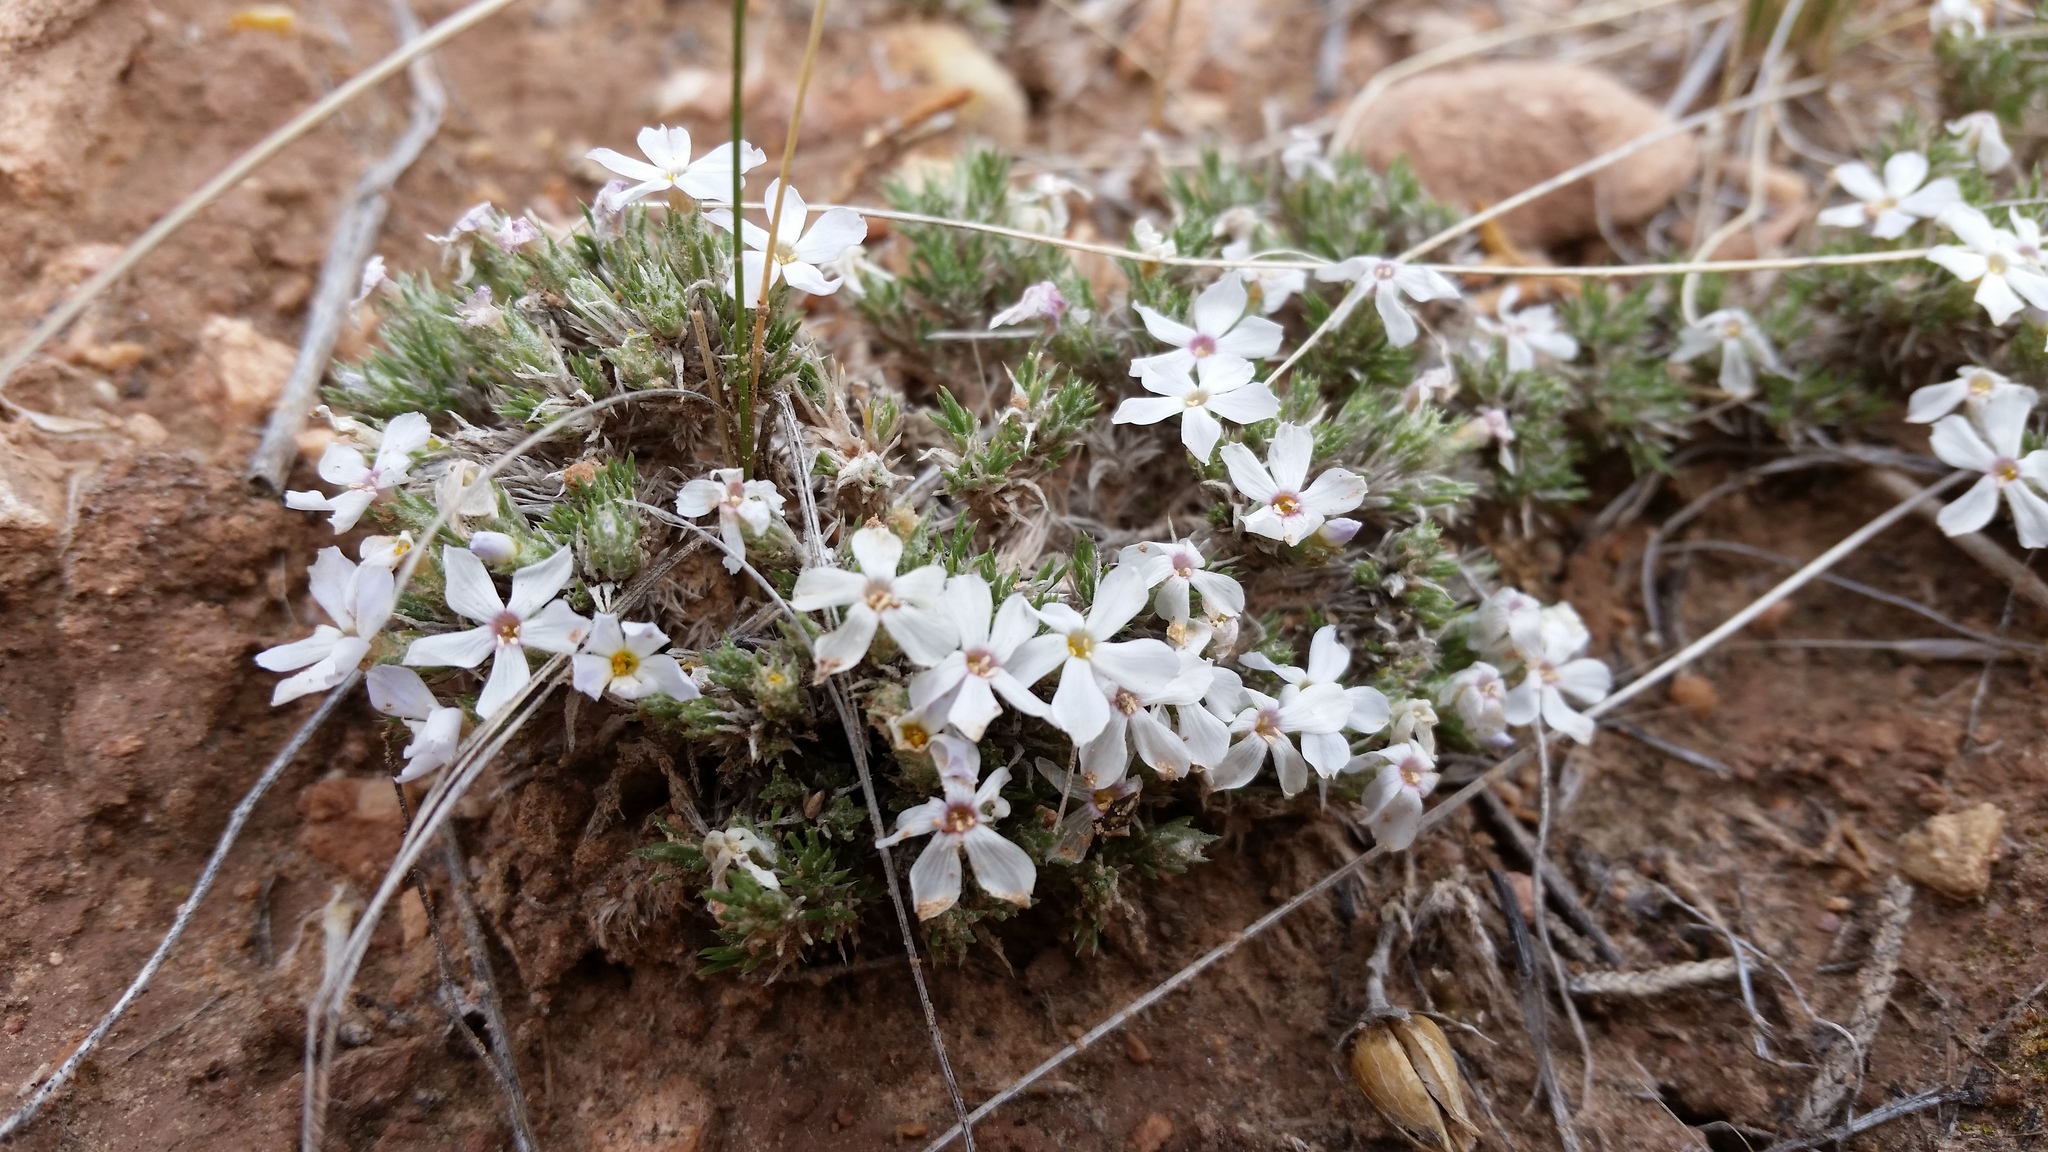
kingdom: Plantae
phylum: Tracheophyta
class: Magnoliopsida
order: Ericales
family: Polemoniaceae
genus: Phlox
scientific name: Phlox hoodii
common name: Moss phlox
